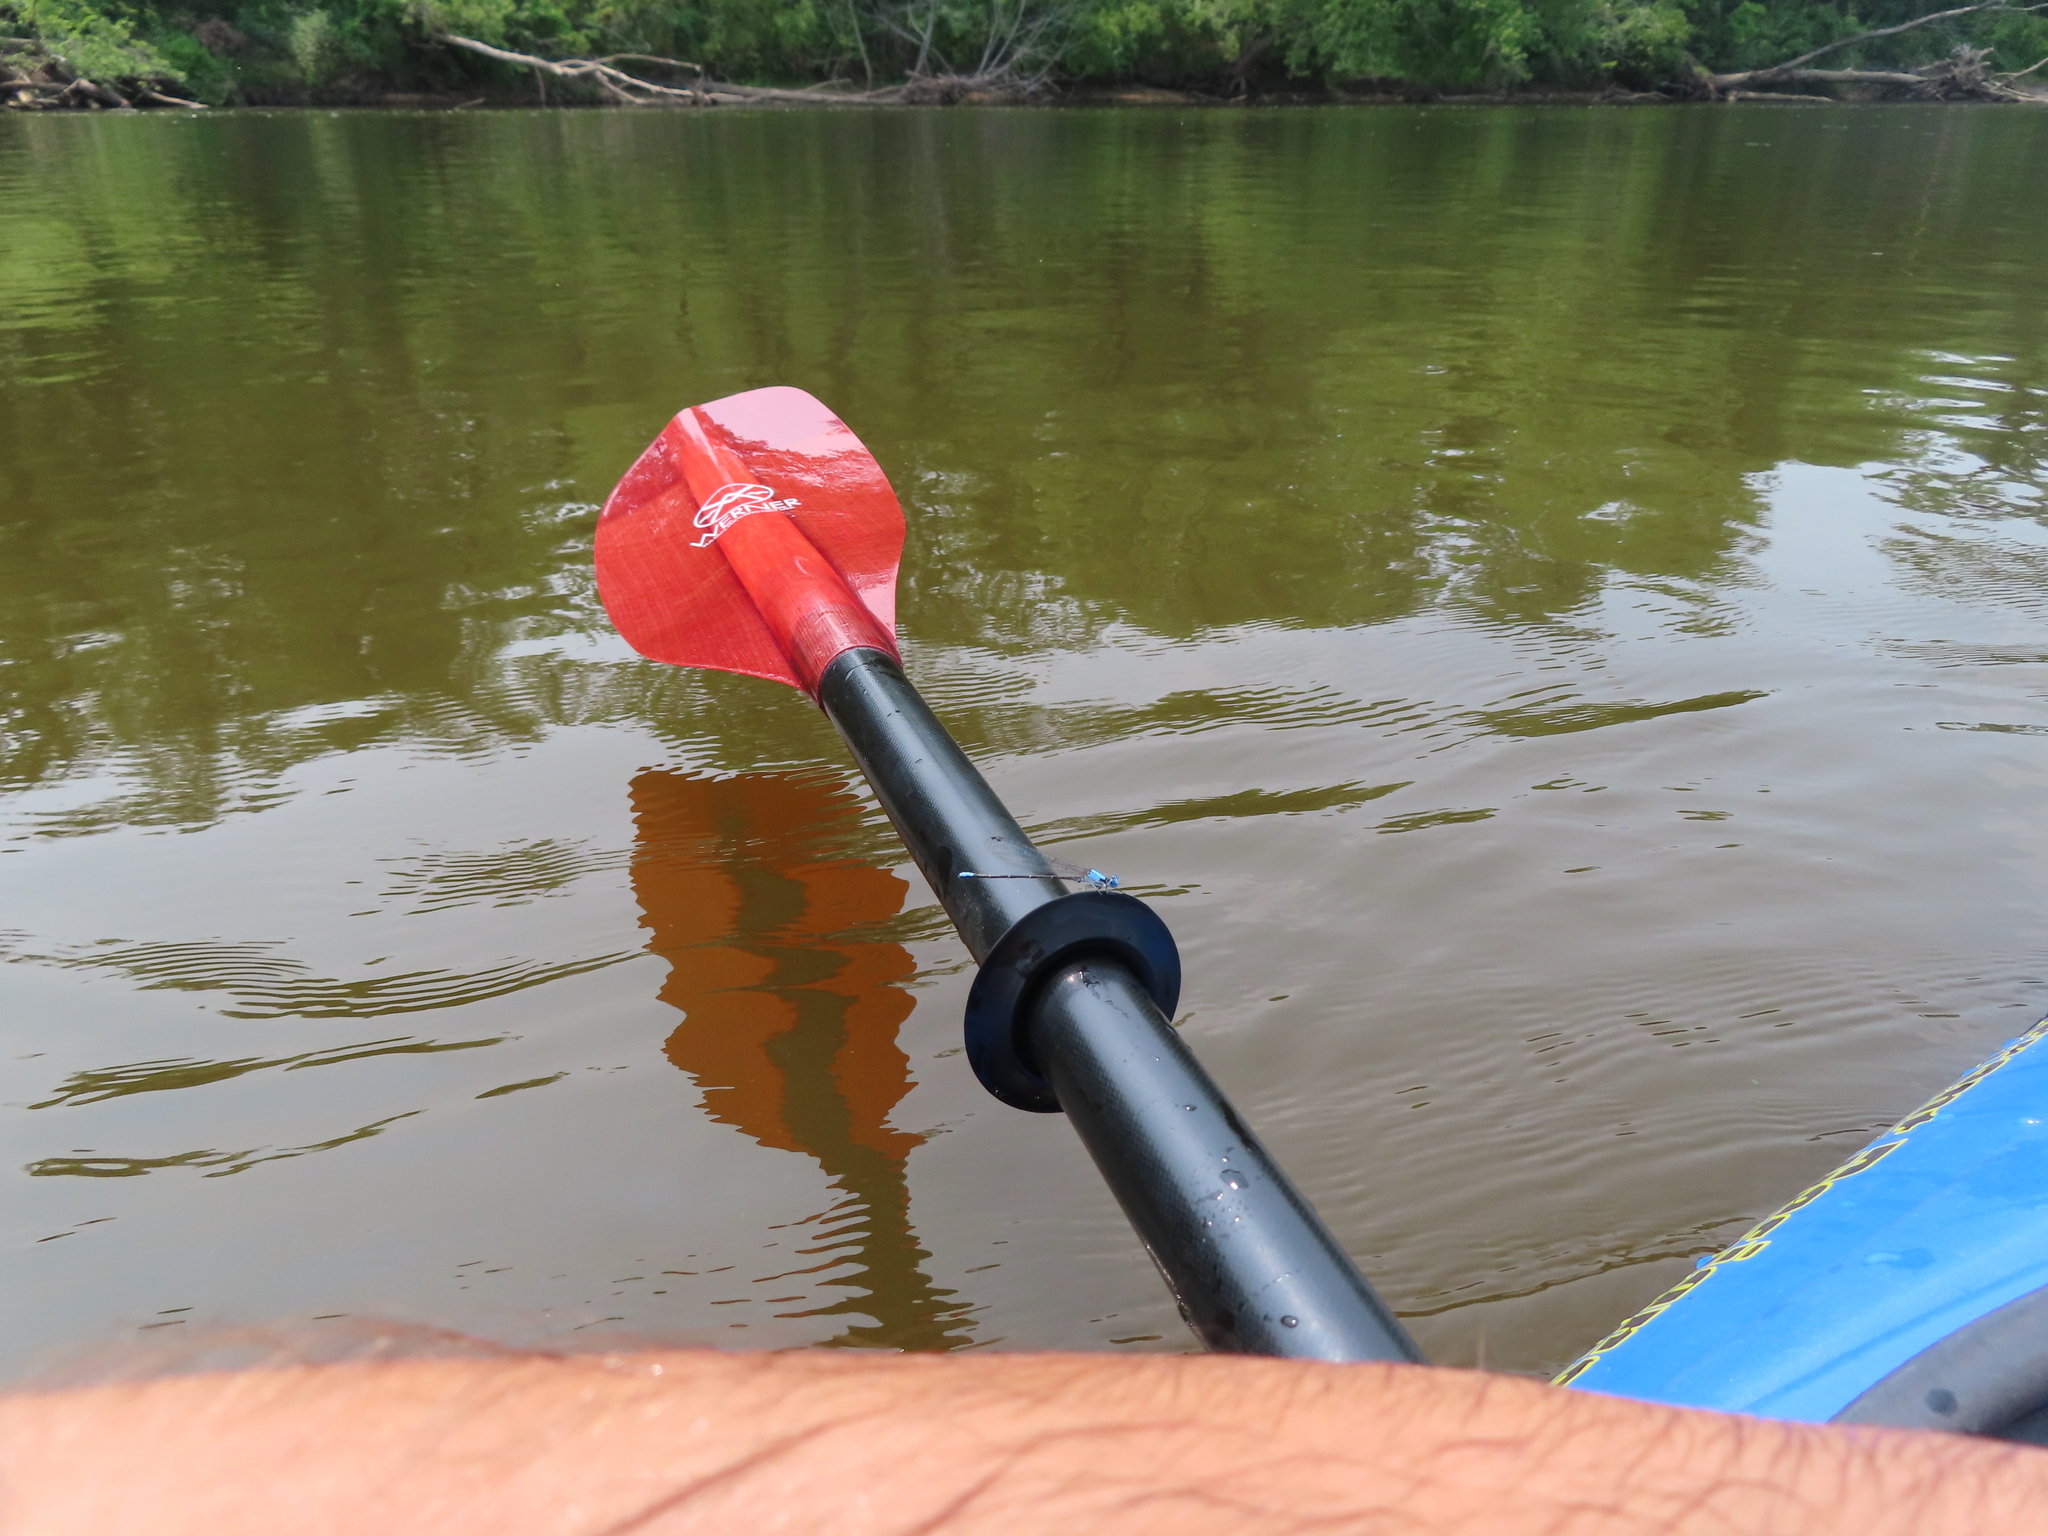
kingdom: Animalia
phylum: Arthropoda
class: Insecta
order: Odonata
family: Coenagrionidae
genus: Argia
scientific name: Argia apicalis
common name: Blue-fronted dancer
